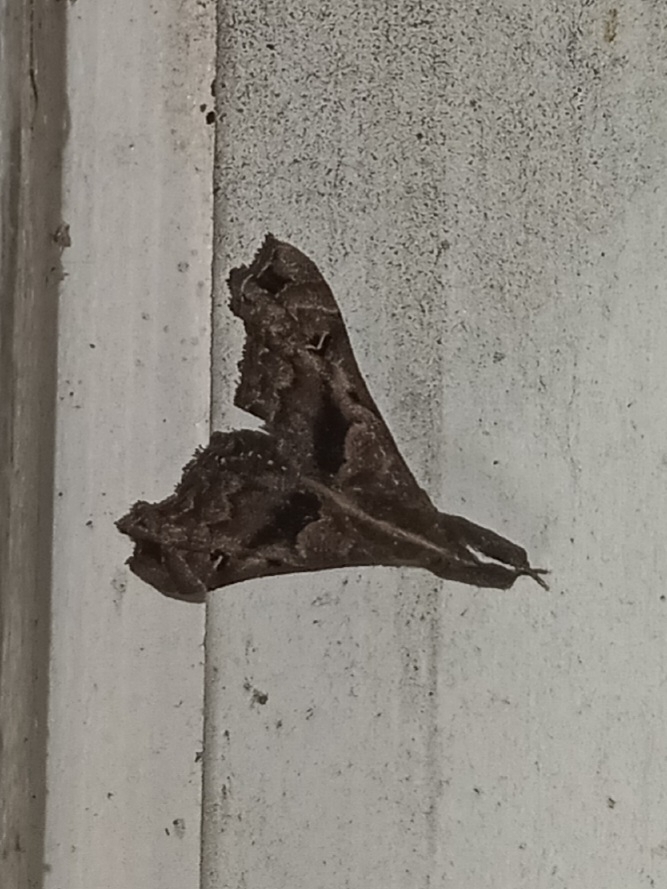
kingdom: Animalia
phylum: Arthropoda
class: Insecta
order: Lepidoptera
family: Erebidae
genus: Palthis
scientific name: Palthis asopialis
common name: Faint-spotted palthis moth
